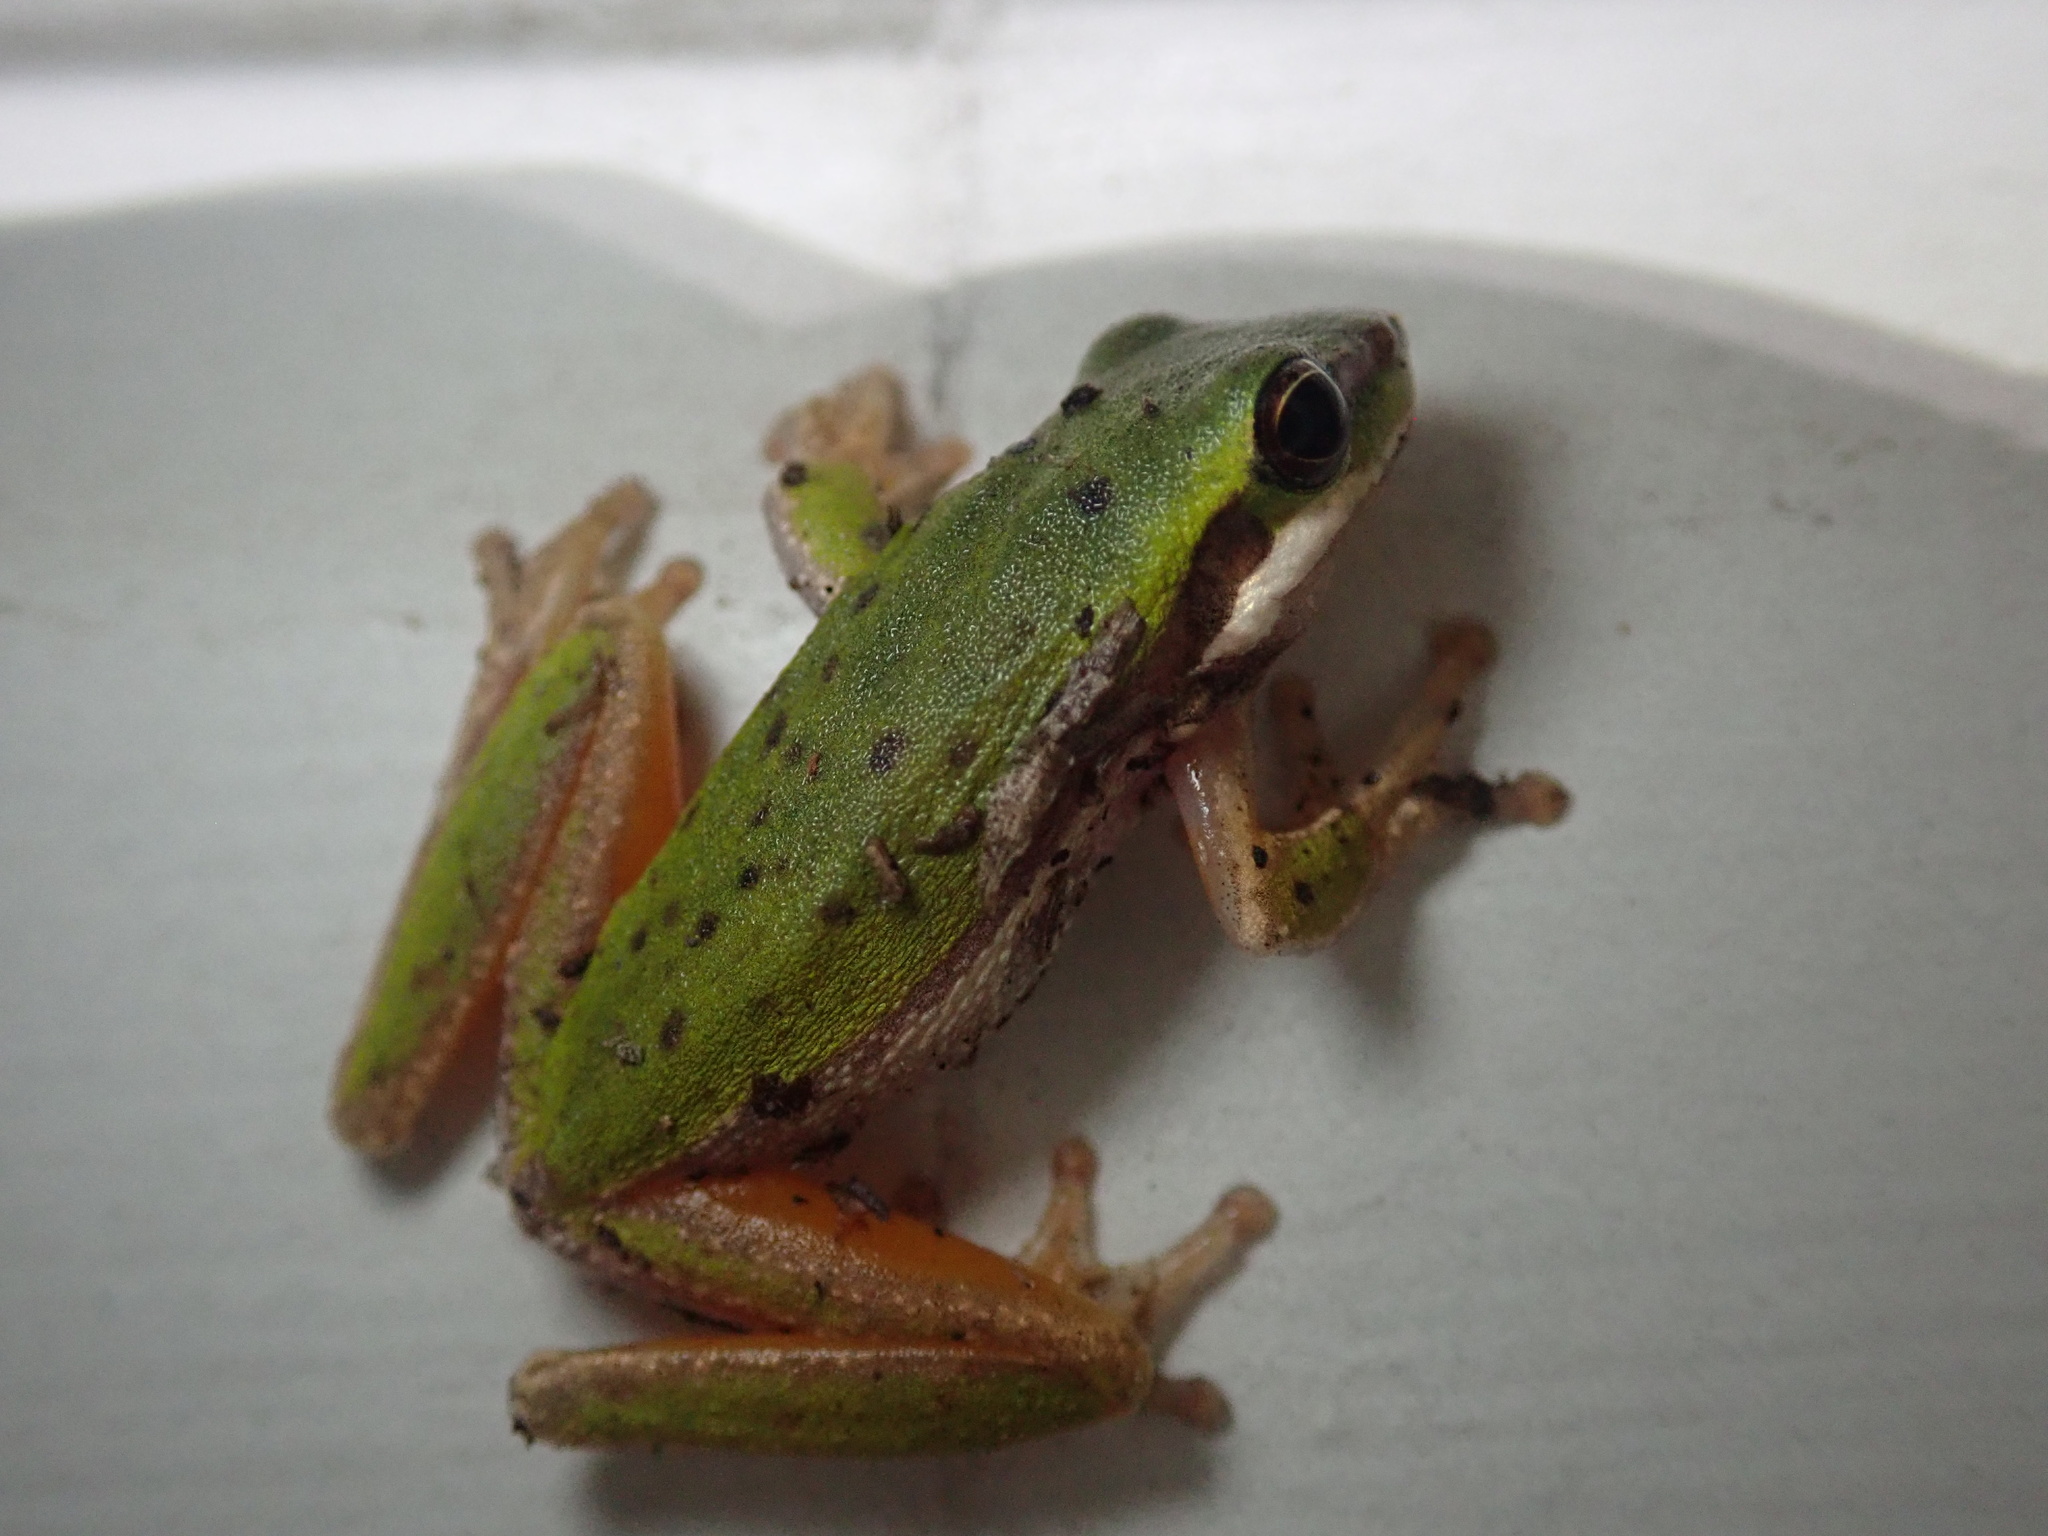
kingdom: Animalia
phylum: Chordata
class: Amphibia
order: Anura
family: Pelodryadidae
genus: Litoria
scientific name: Litoria fallax
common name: Eastern dwarf treefrog
